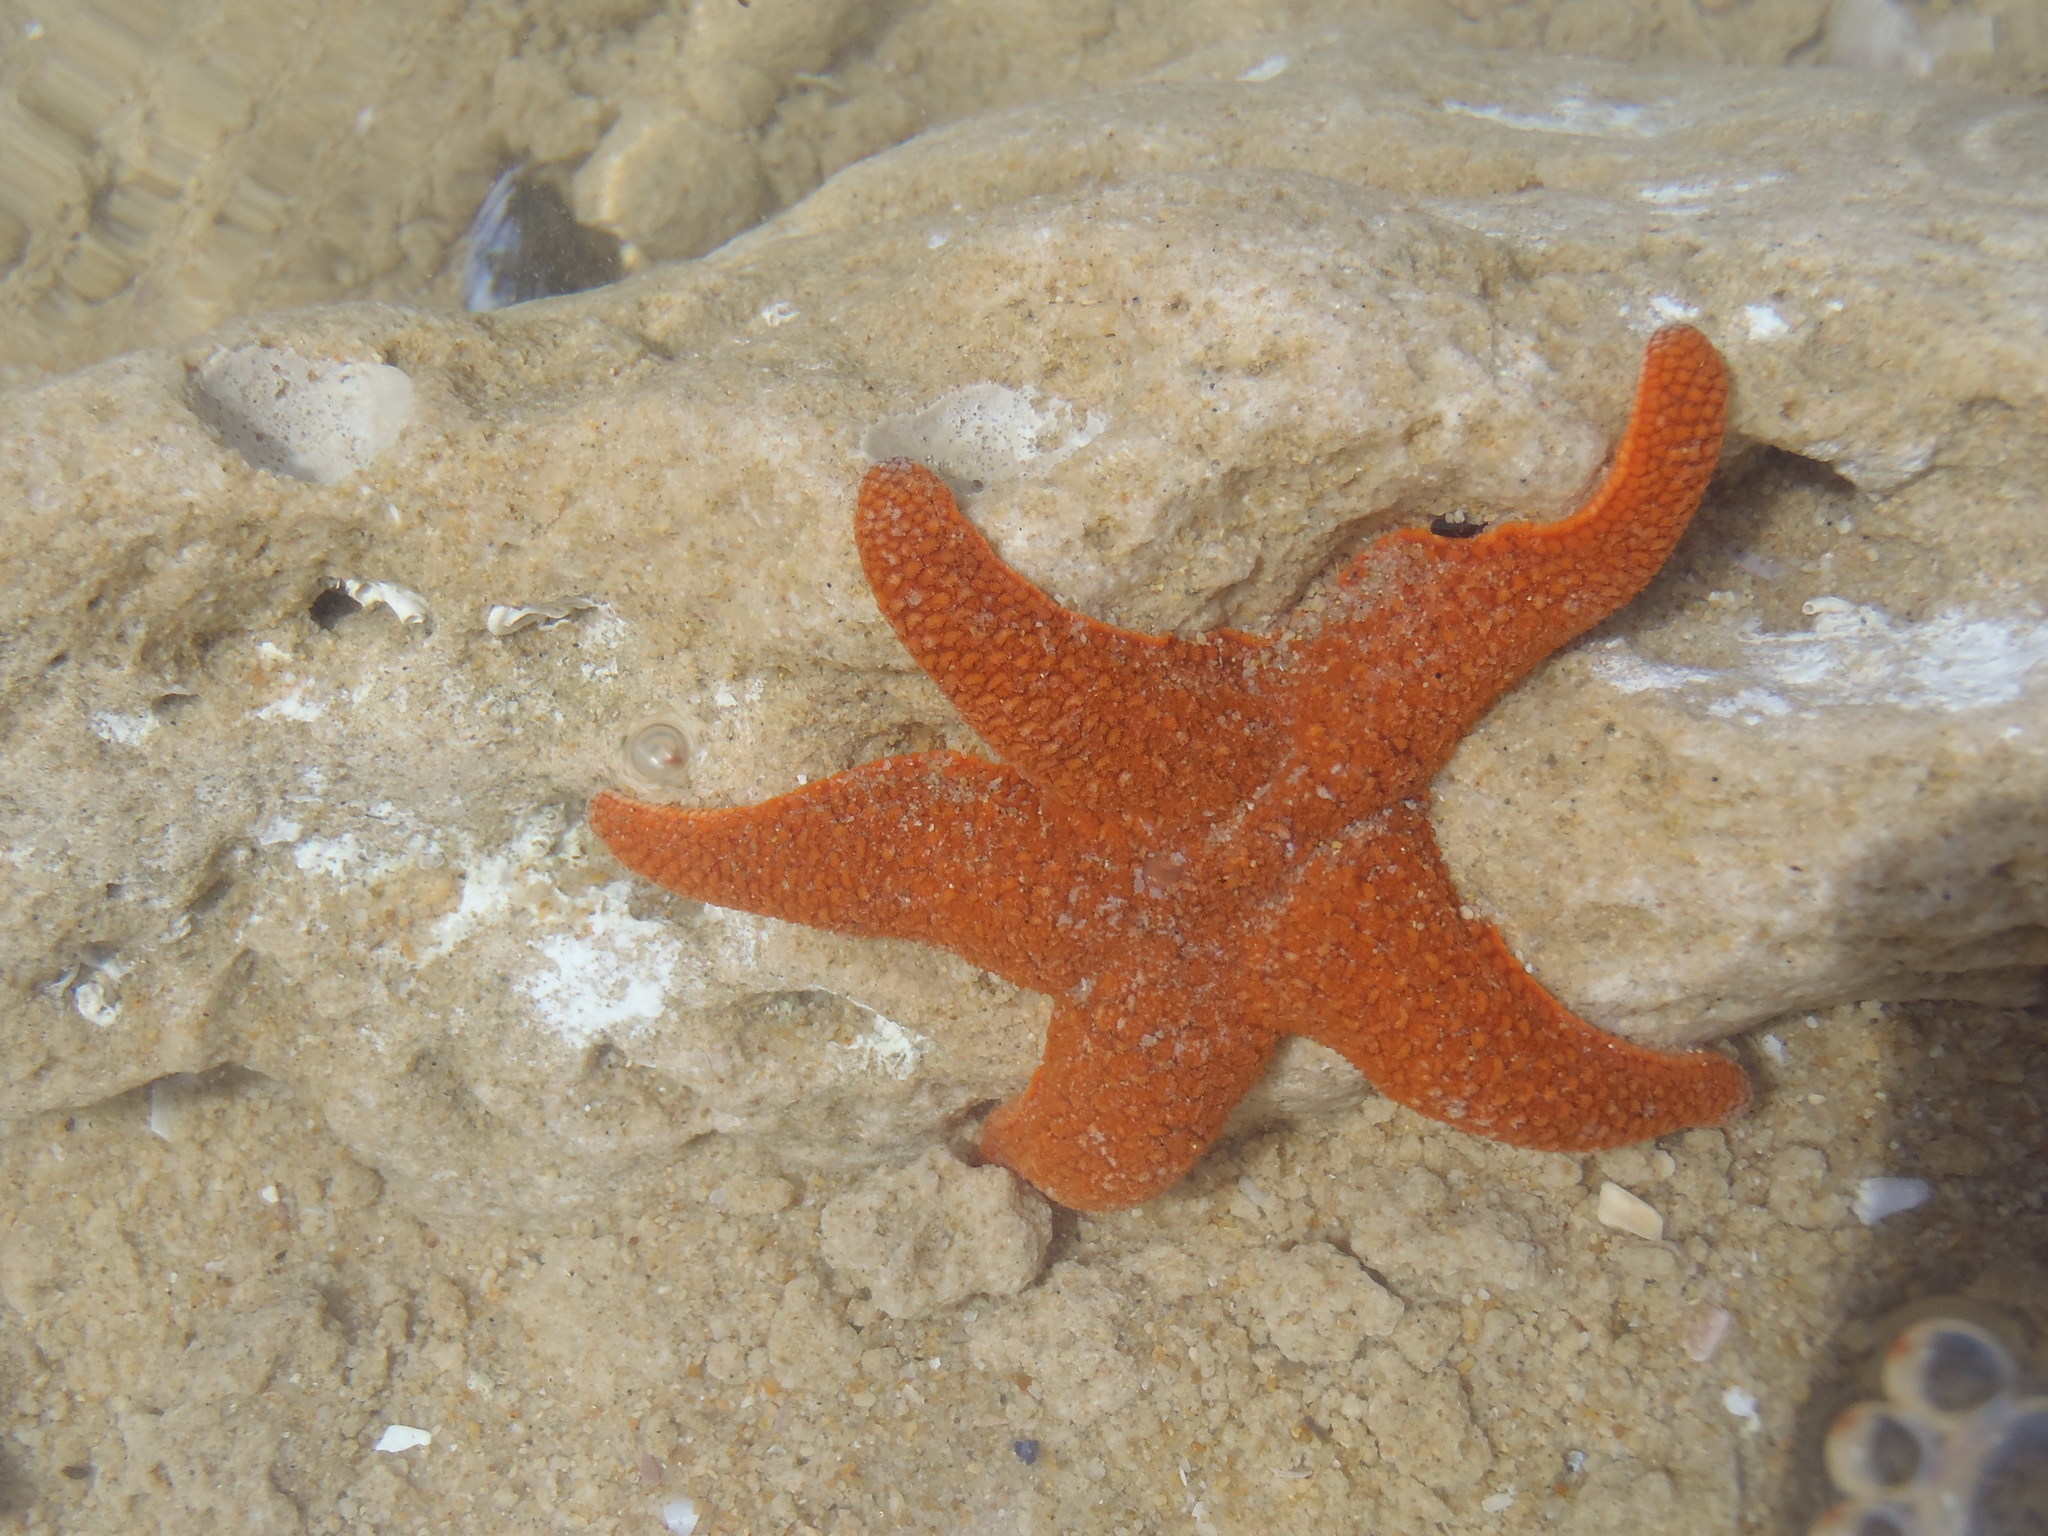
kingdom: Animalia
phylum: Echinodermata
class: Asteroidea
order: Valvatida
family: Asterinidae
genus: Callopatiria
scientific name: Callopatiria granifera
